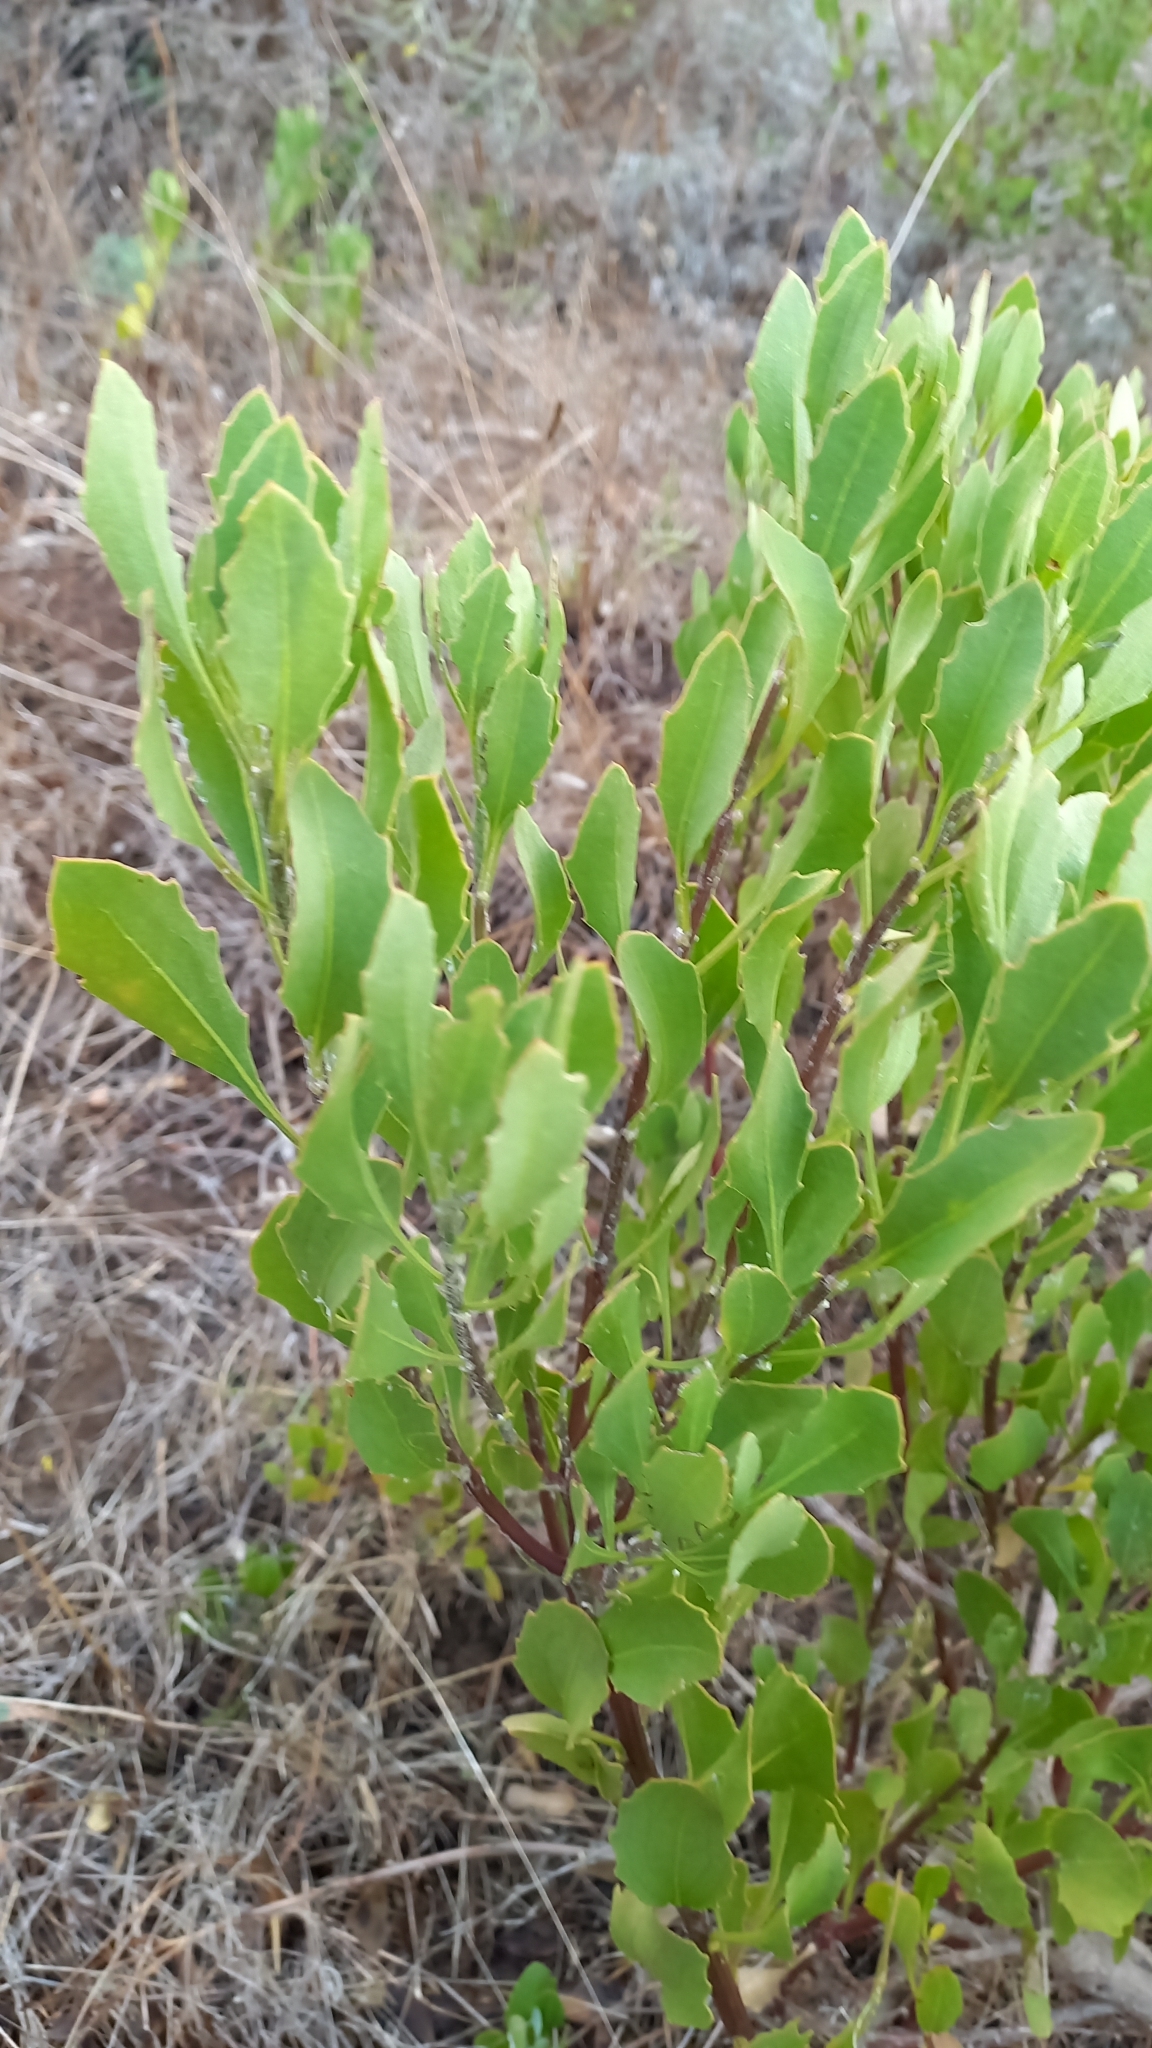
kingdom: Plantae
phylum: Tracheophyta
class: Magnoliopsida
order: Asterales
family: Asteraceae
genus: Osteospermum
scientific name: Osteospermum moniliferum
